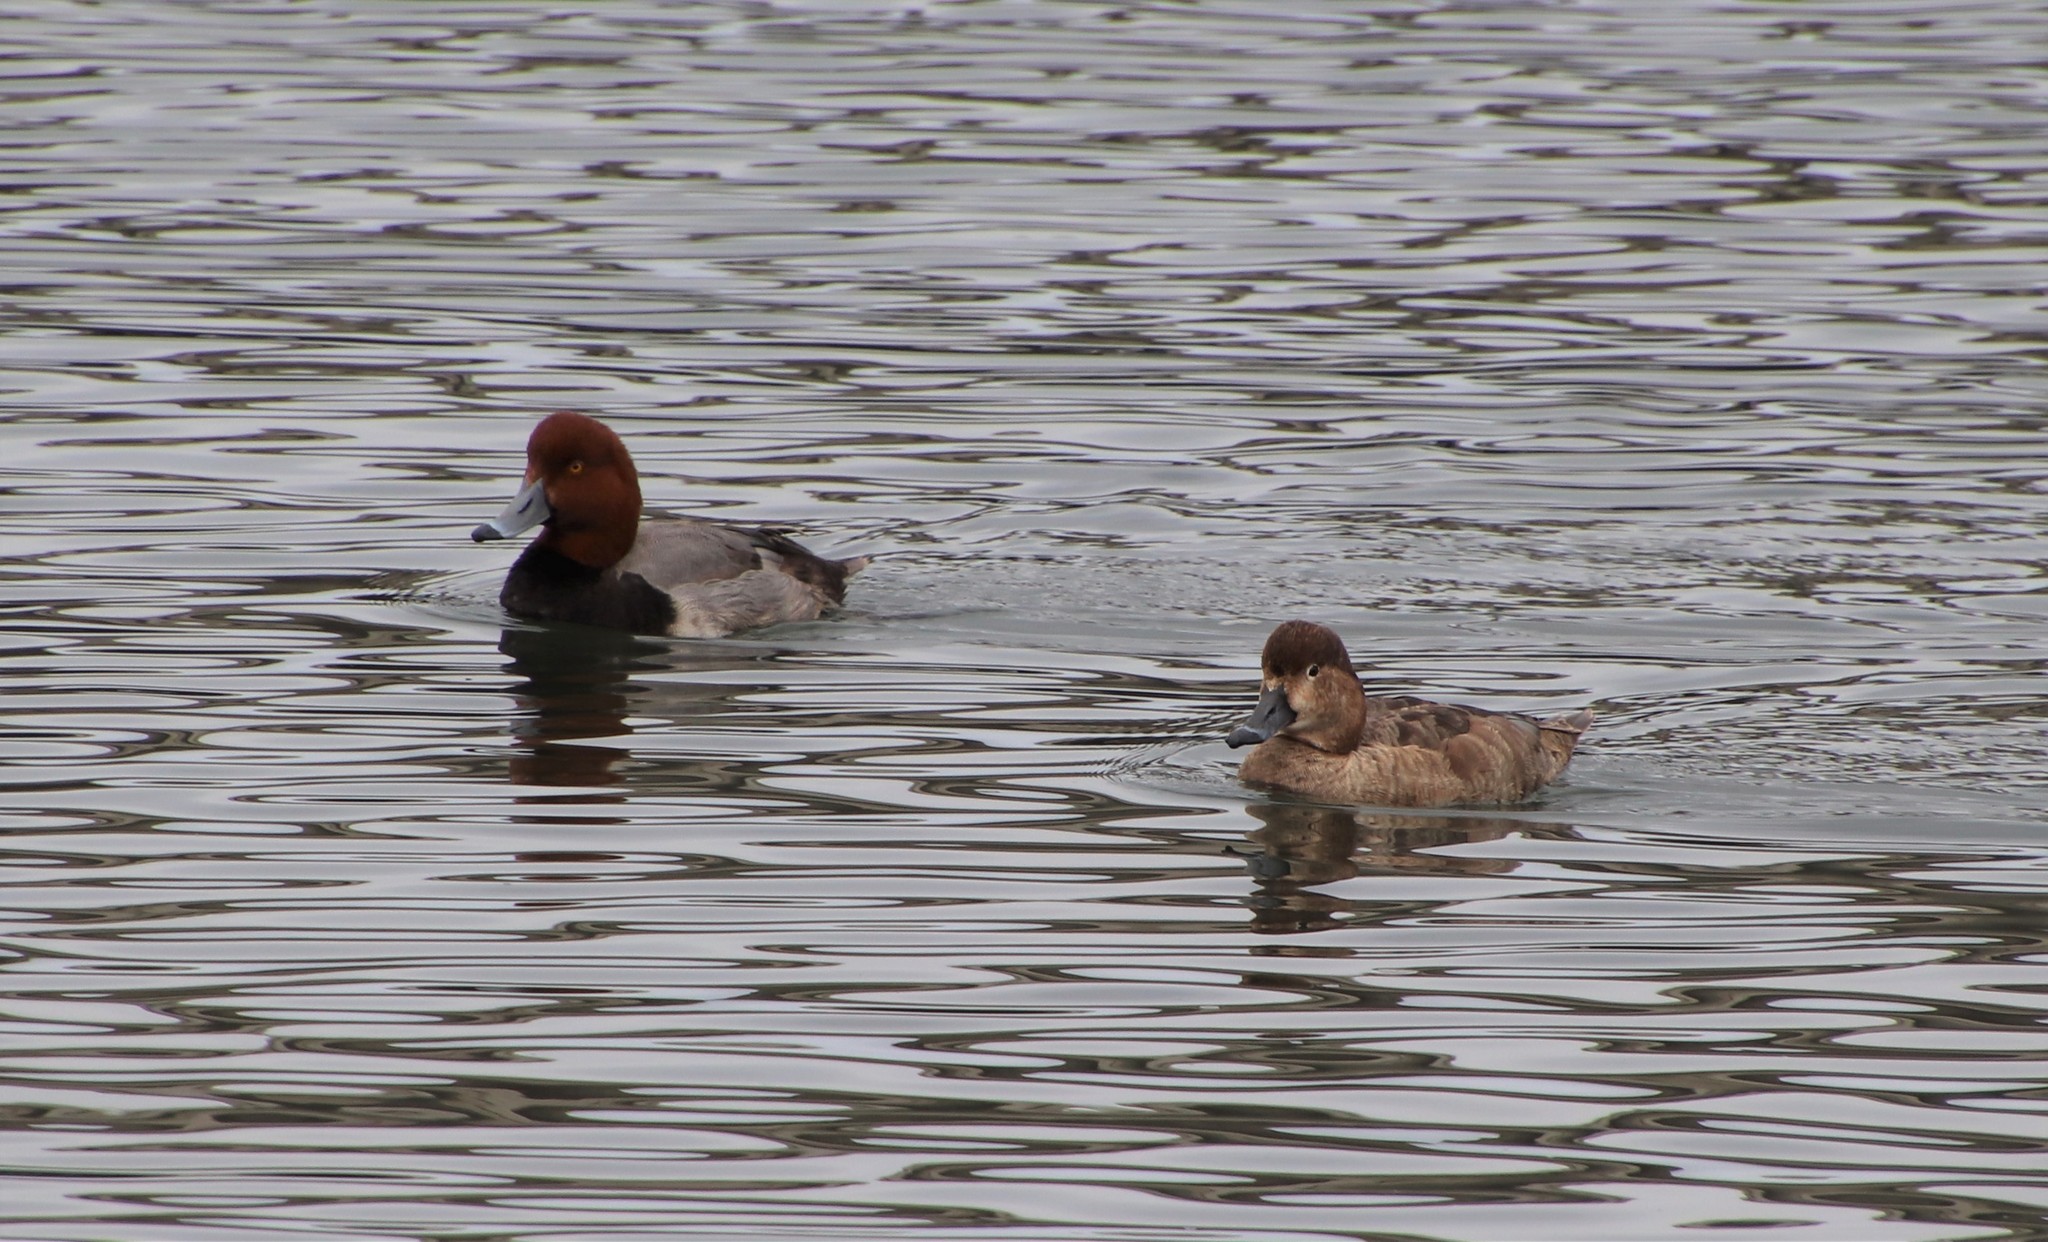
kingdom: Animalia
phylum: Chordata
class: Aves
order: Anseriformes
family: Anatidae
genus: Aythya
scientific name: Aythya americana
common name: Redhead
